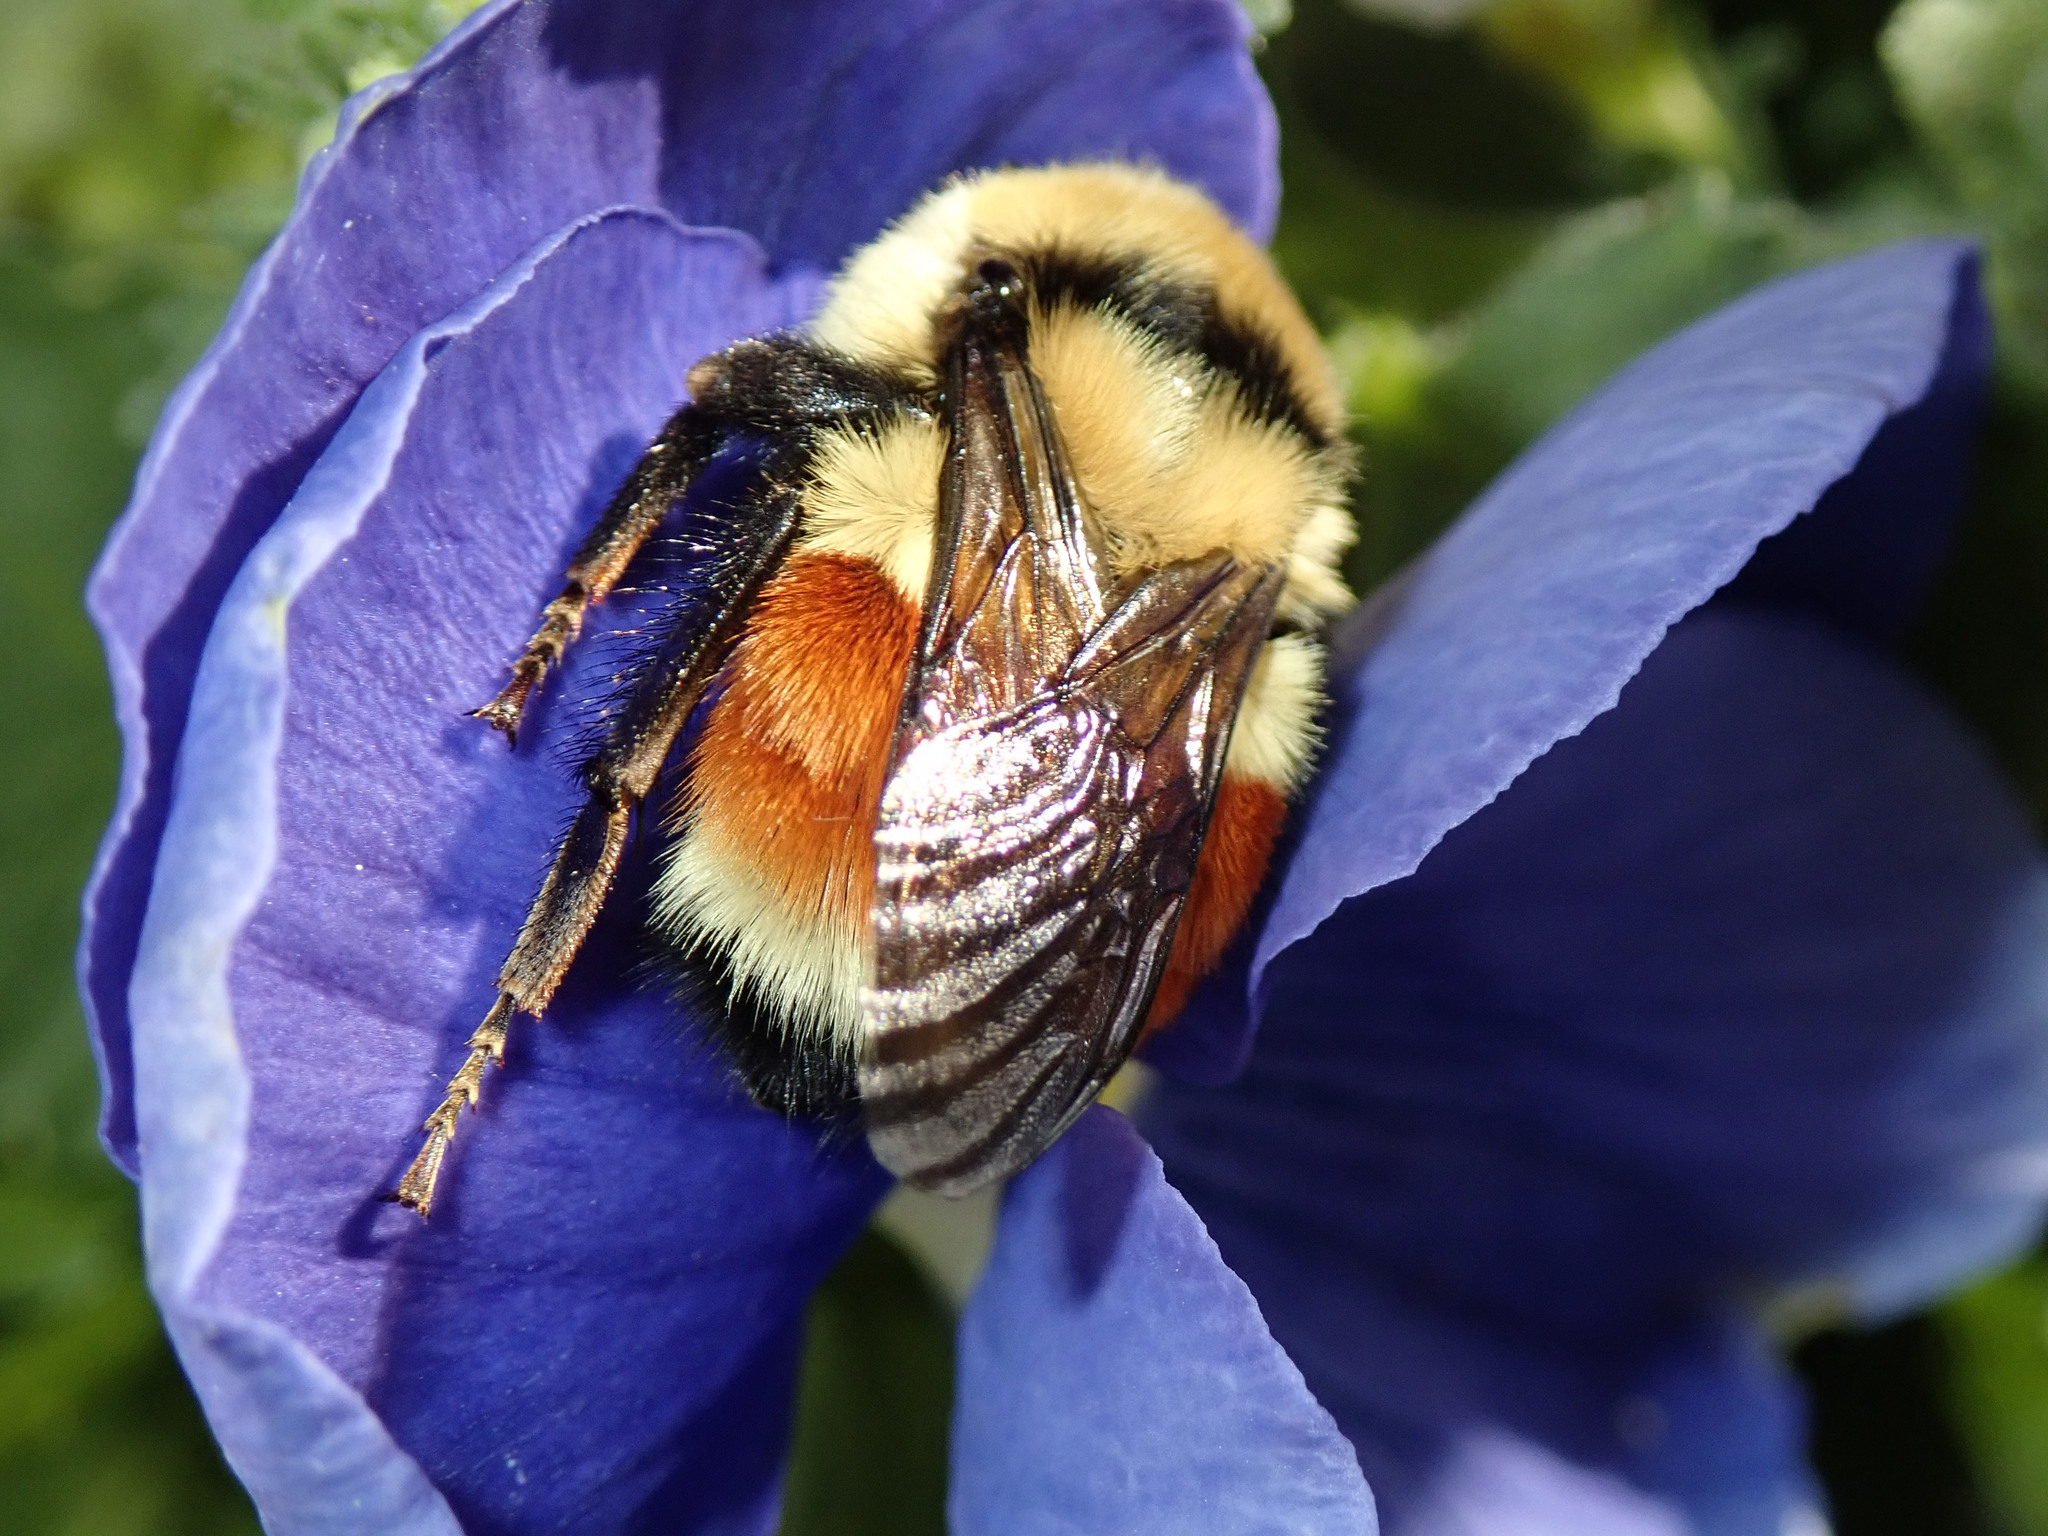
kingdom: Animalia
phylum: Arthropoda
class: Insecta
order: Hymenoptera
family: Apidae
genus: Bombus
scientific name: Bombus huntii
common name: Hunt bumble bee
